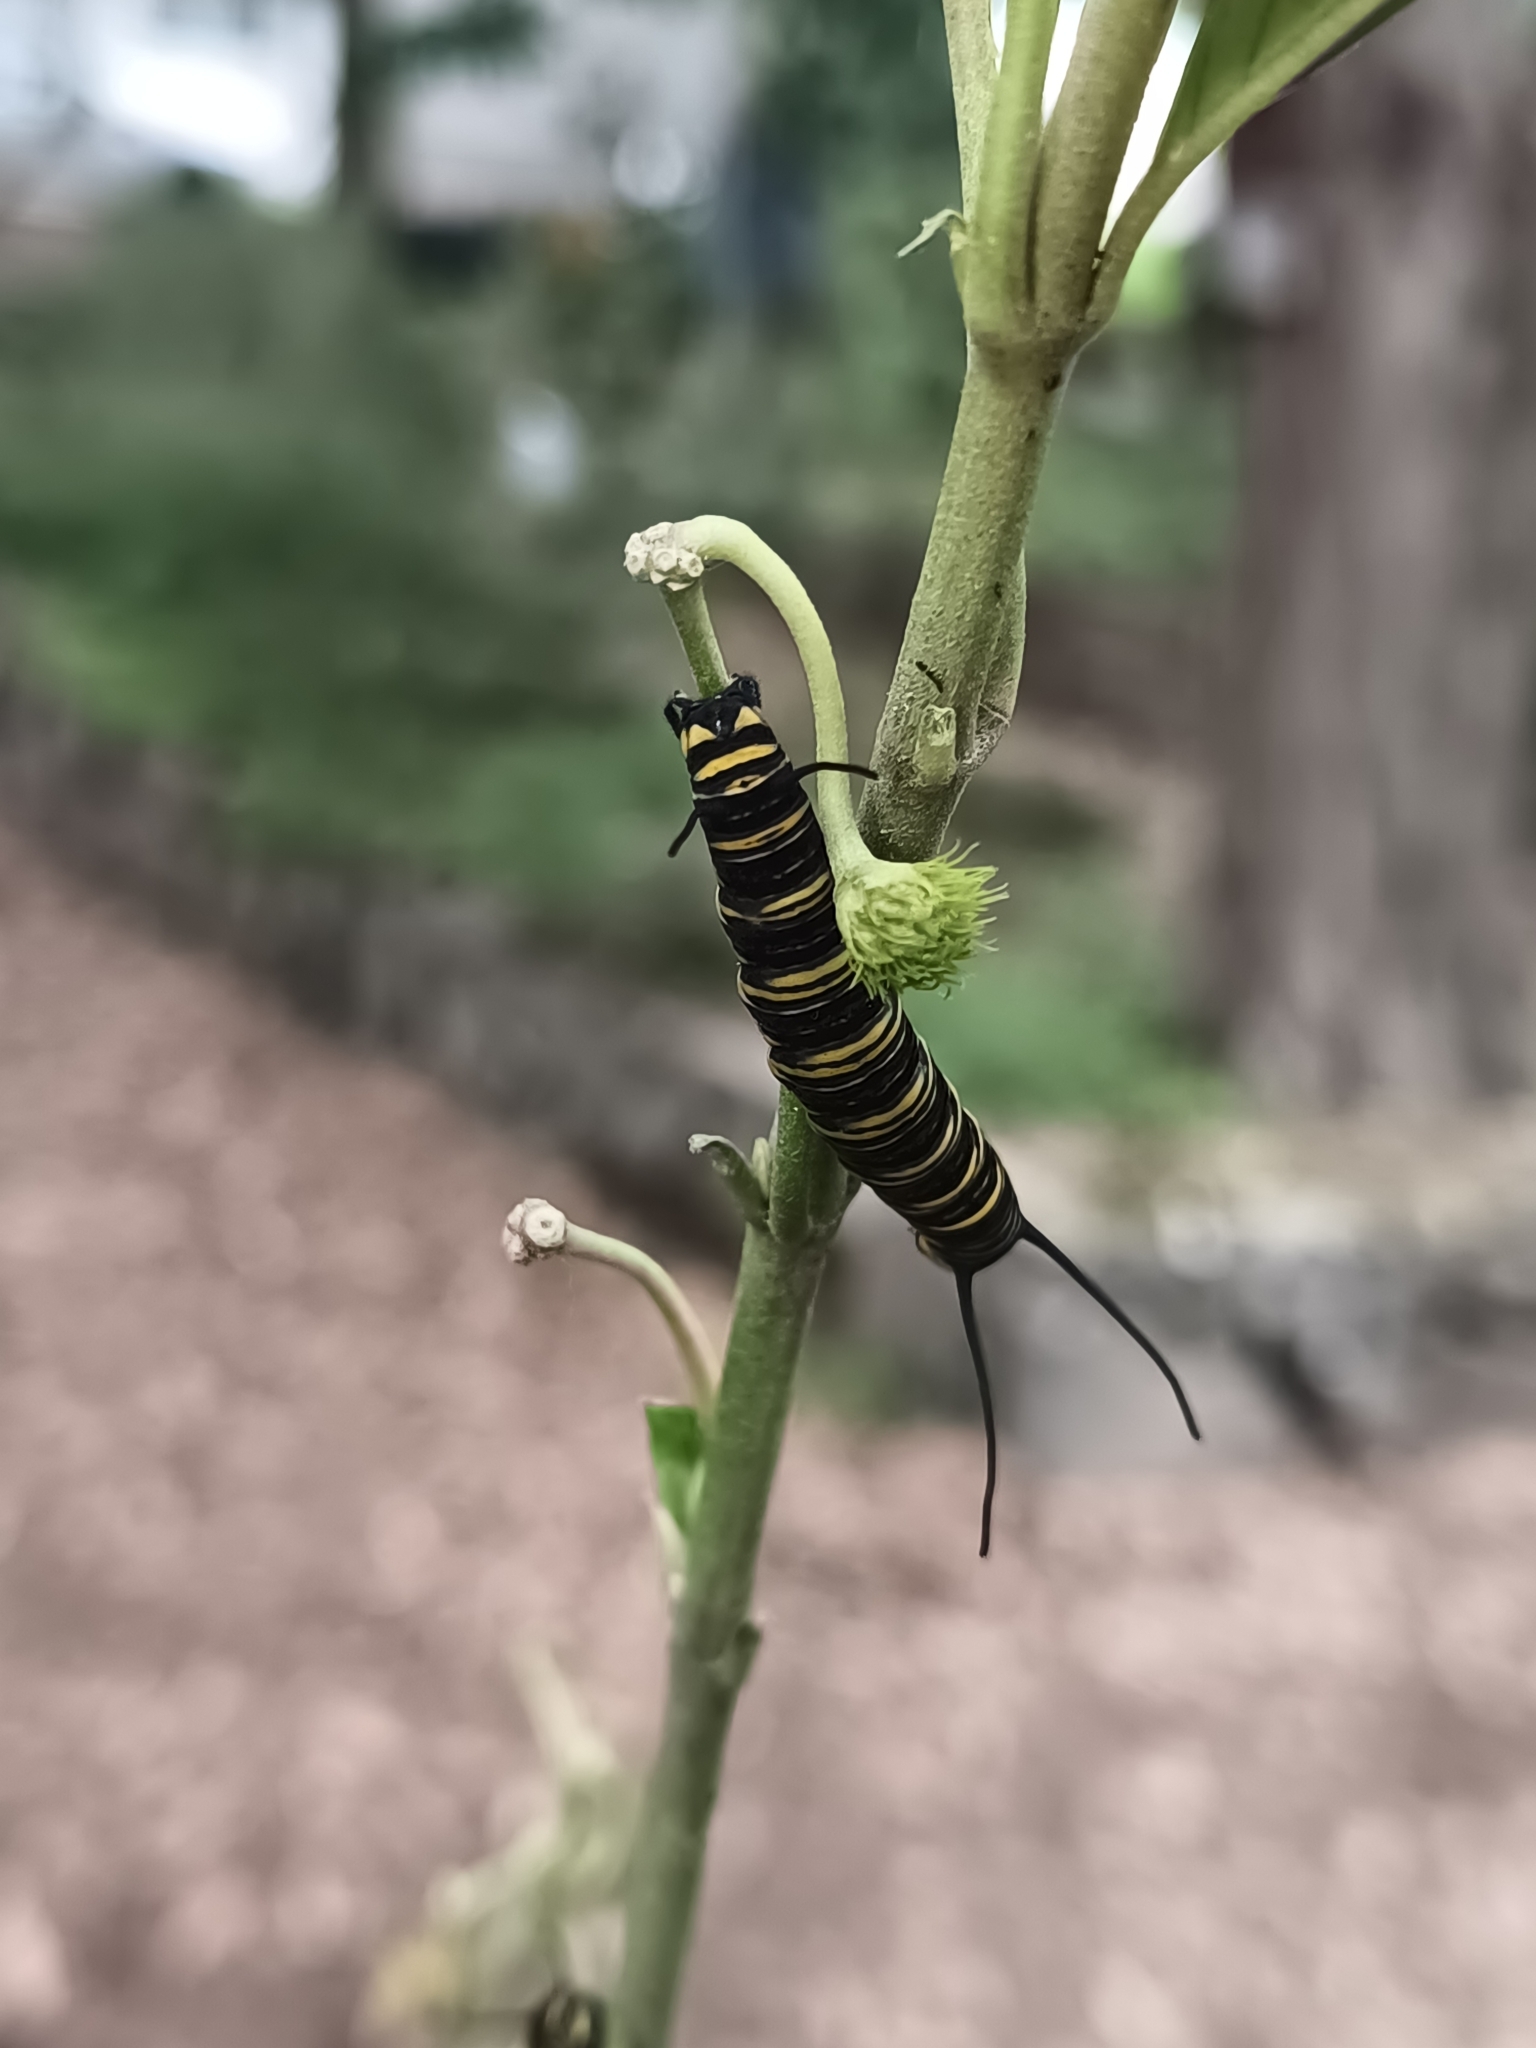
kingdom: Animalia
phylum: Arthropoda
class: Insecta
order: Lepidoptera
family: Nymphalidae
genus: Danaus
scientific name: Danaus plexippus
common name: Monarch
